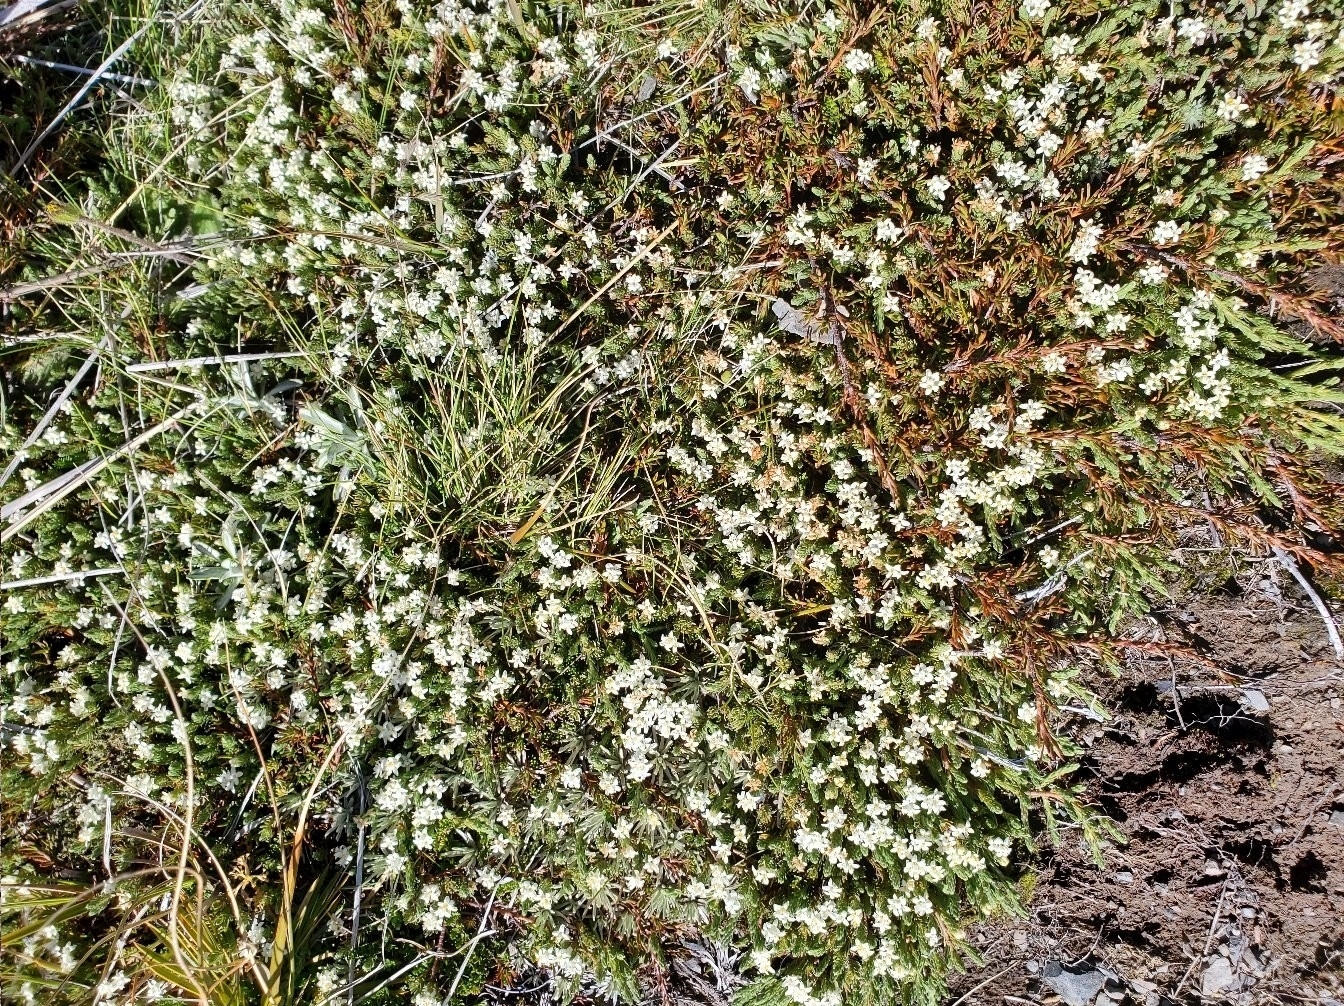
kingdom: Plantae
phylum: Tracheophyta
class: Magnoliopsida
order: Malvales
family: Thymelaeaceae
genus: Kelleria
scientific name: Kelleria dieffenbachii
